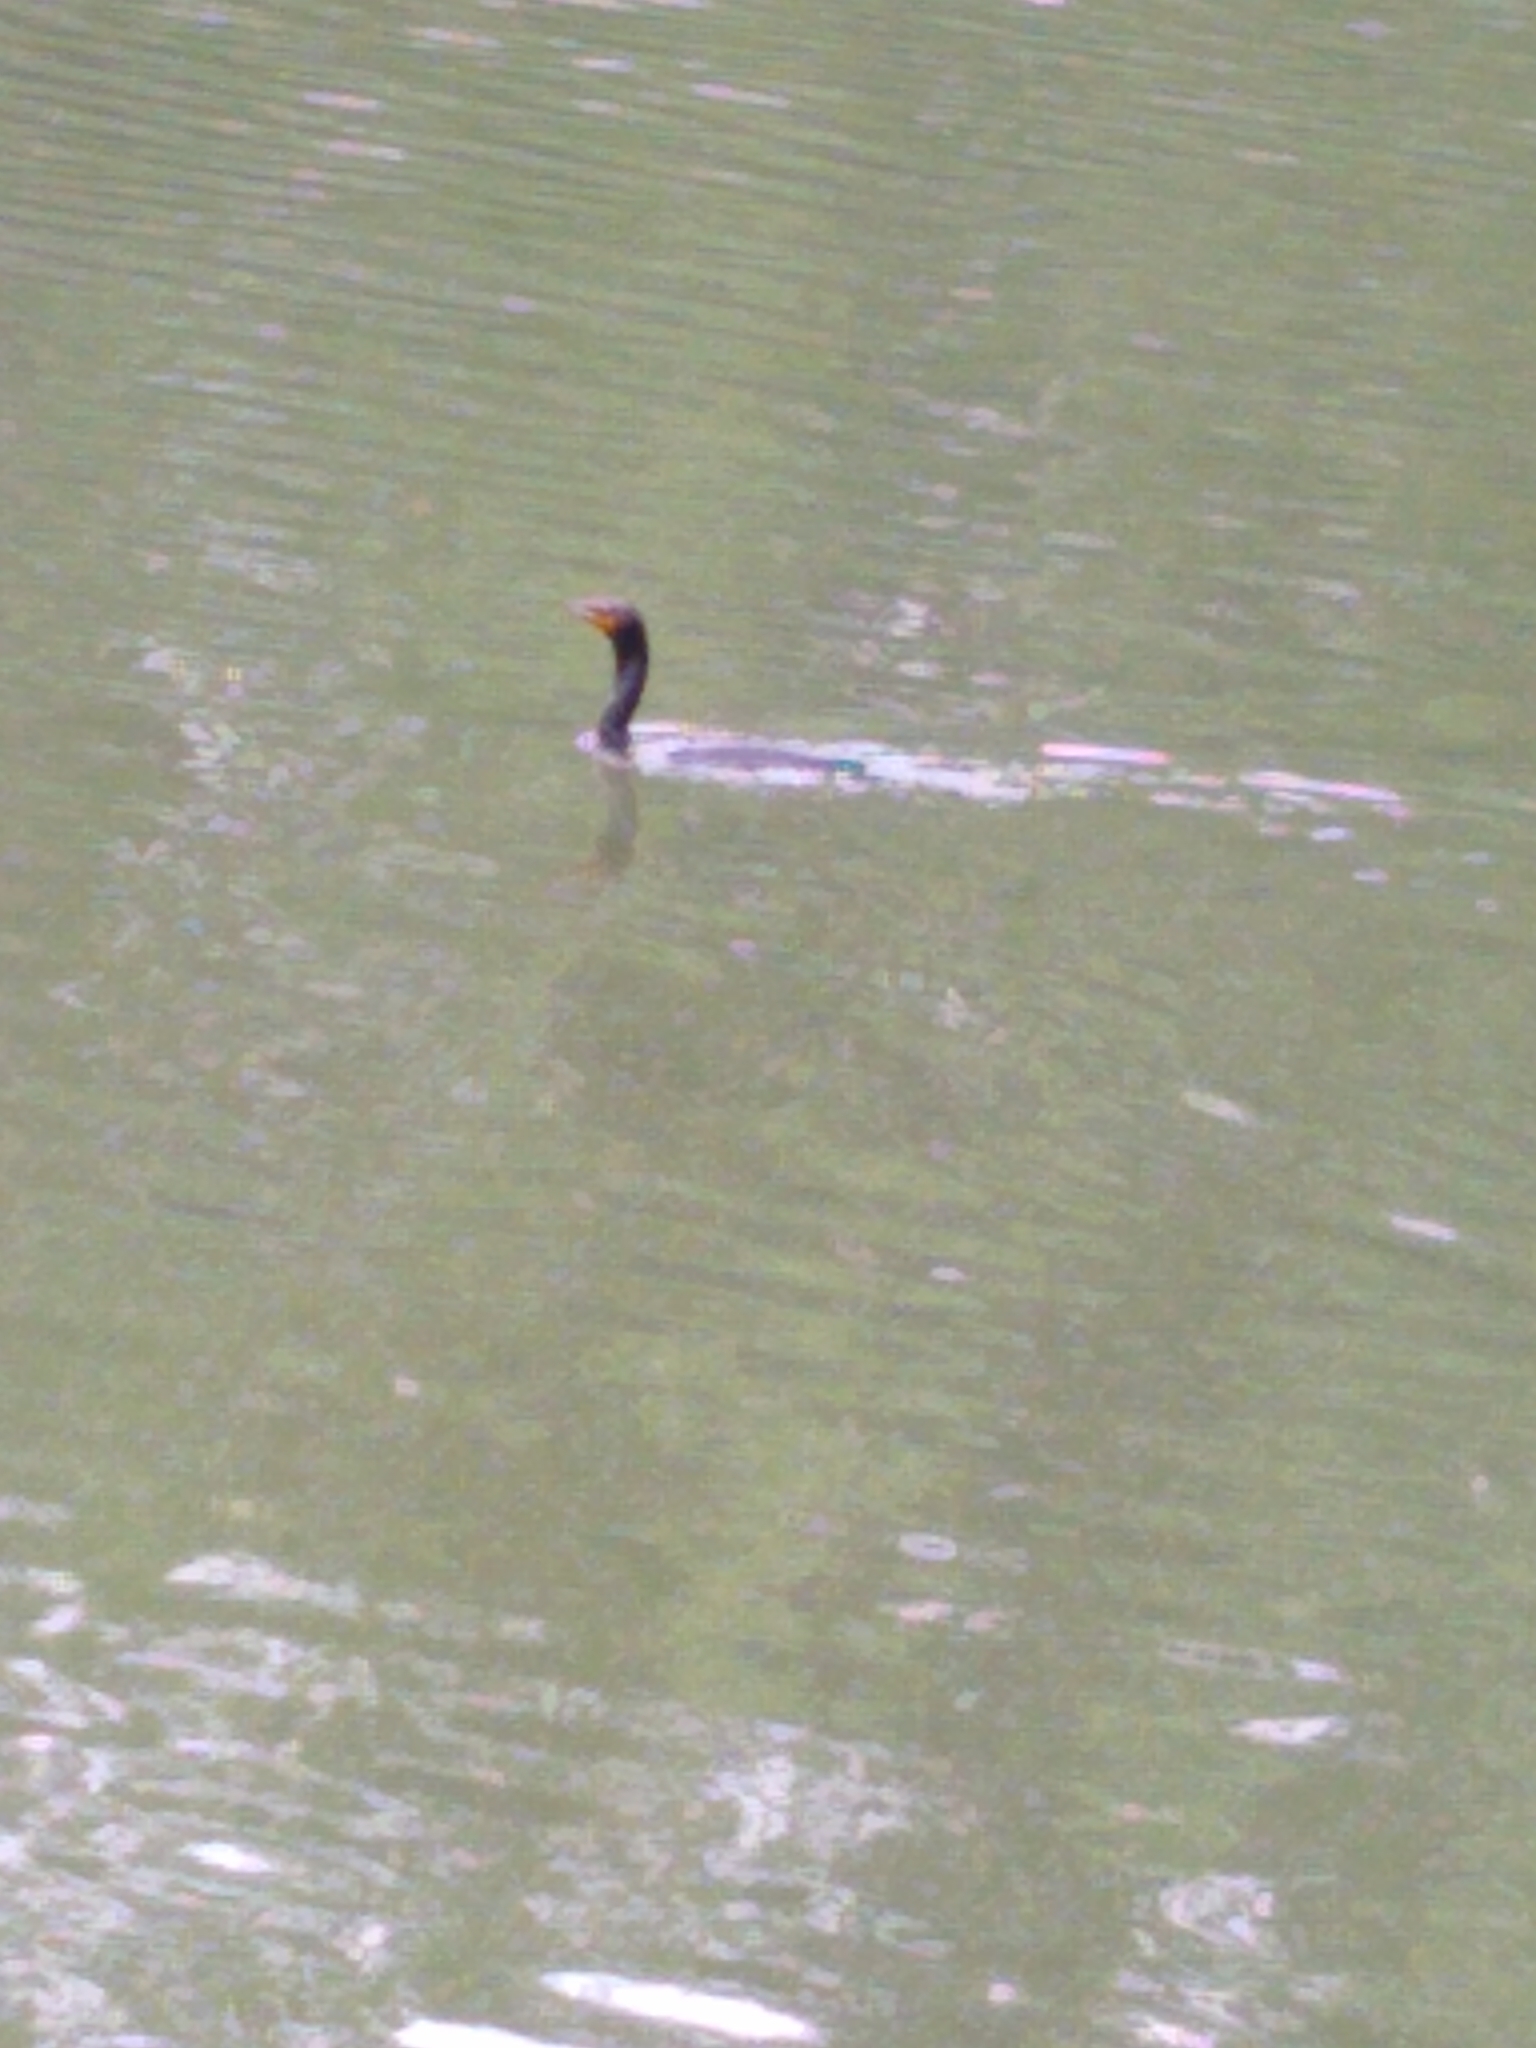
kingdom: Animalia
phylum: Chordata
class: Aves
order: Suliformes
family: Phalacrocoracidae
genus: Phalacrocorax
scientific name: Phalacrocorax auritus
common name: Double-crested cormorant
